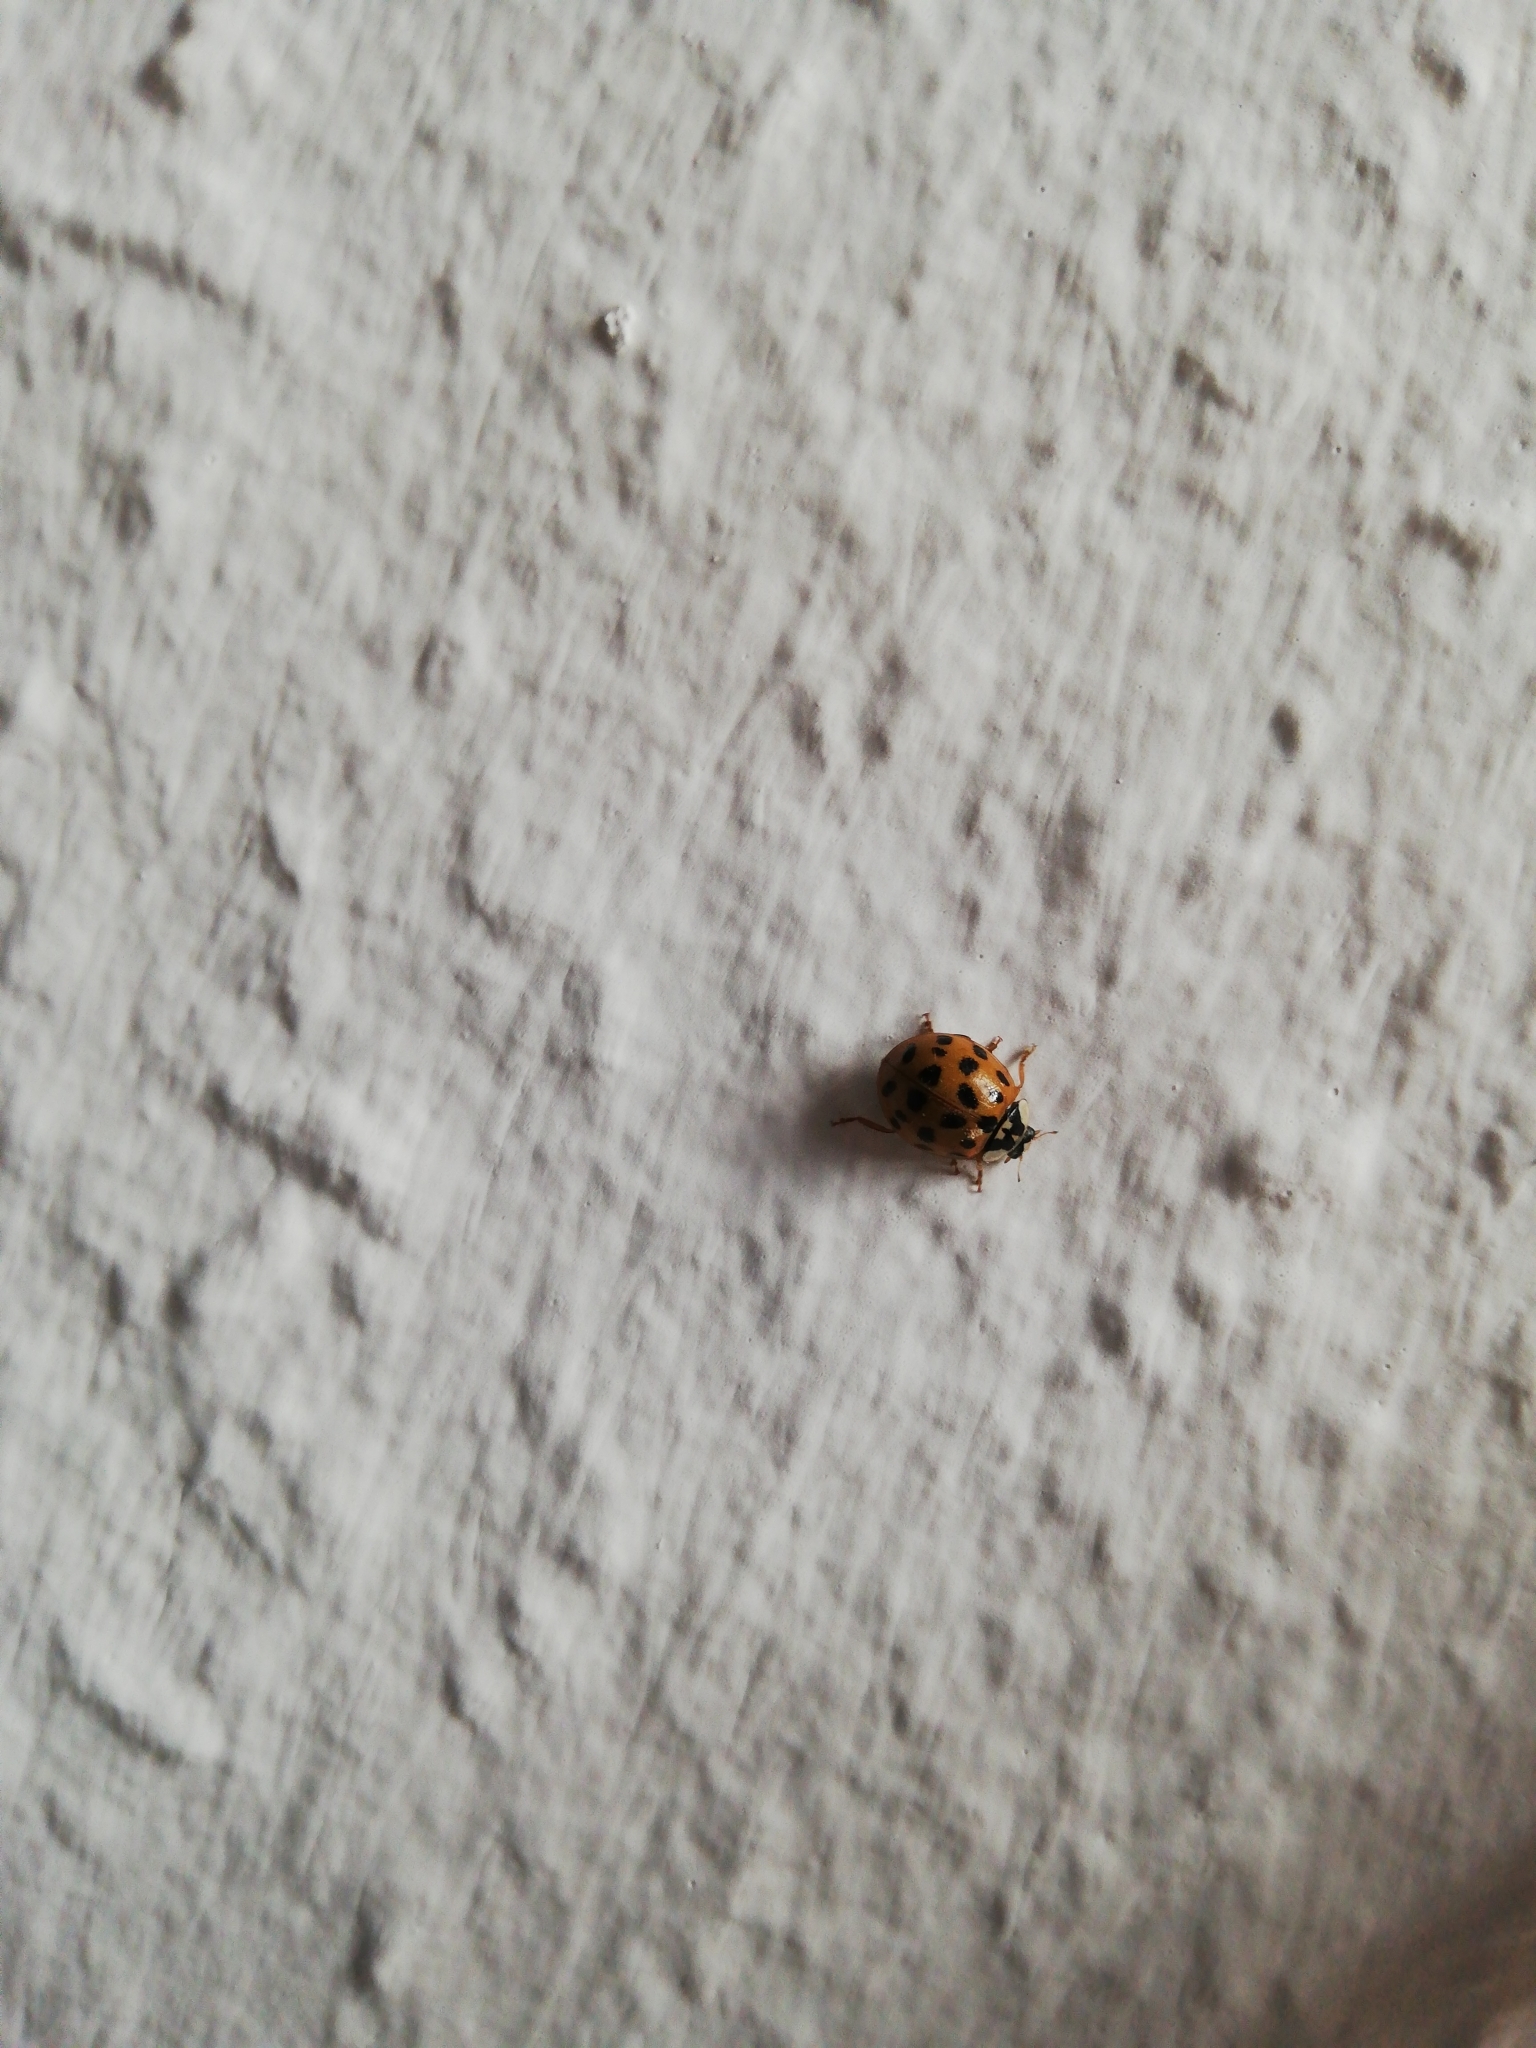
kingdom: Animalia
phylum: Arthropoda
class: Insecta
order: Coleoptera
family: Coccinellidae
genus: Harmonia
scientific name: Harmonia axyridis
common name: Harlequin ladybird
